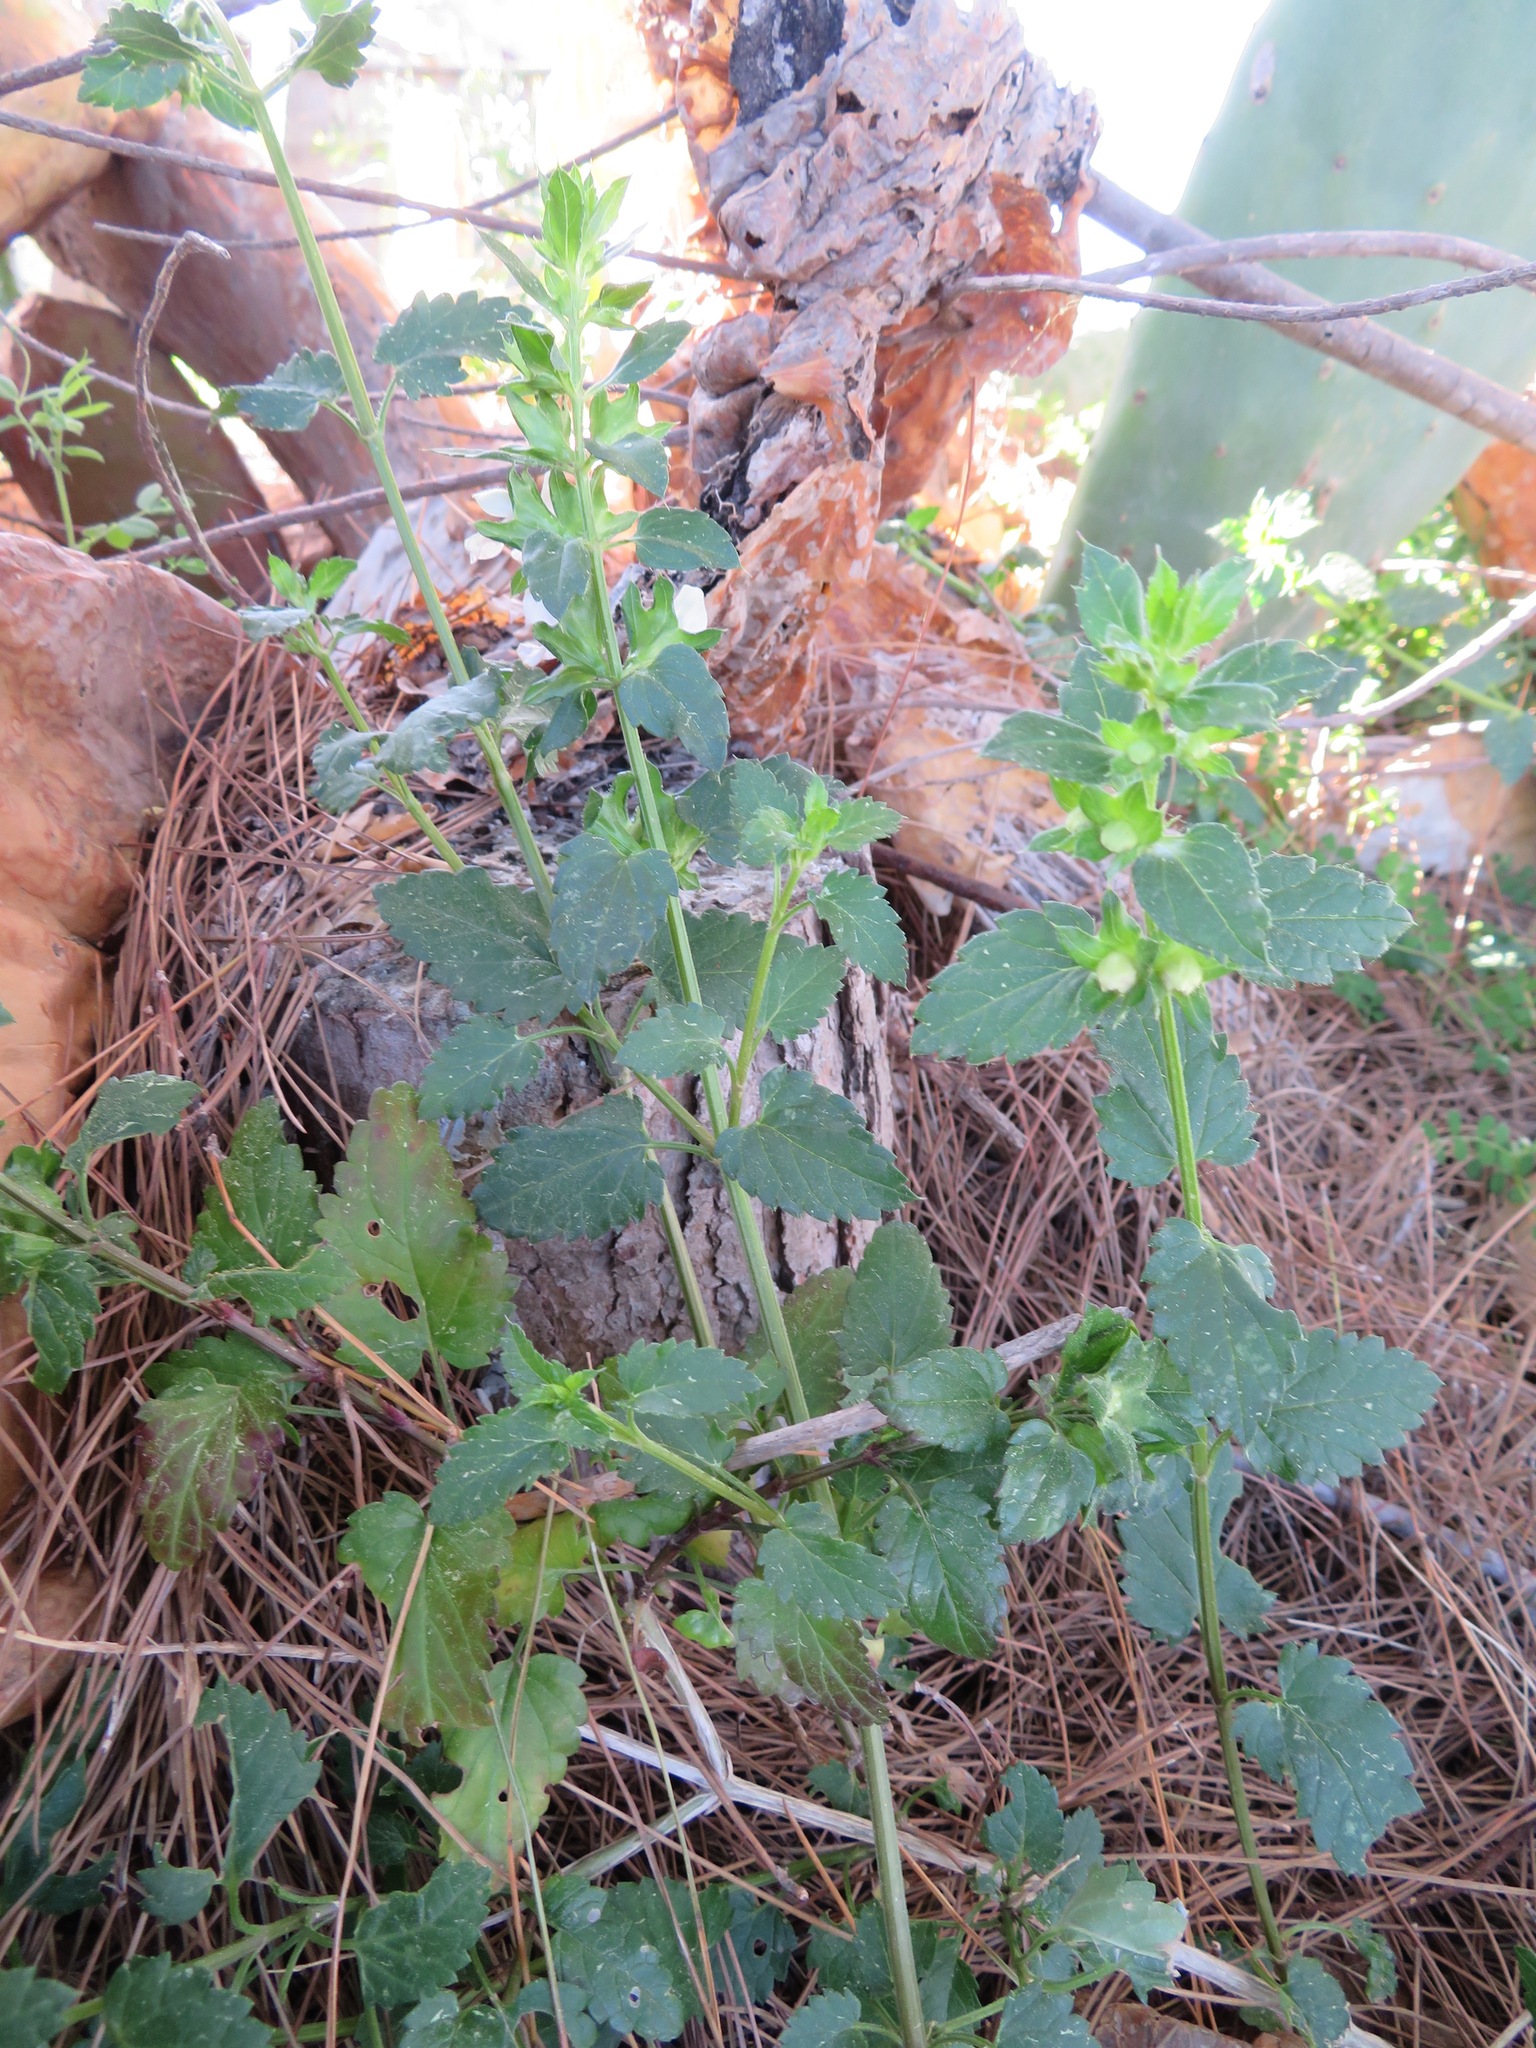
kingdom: Plantae
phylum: Tracheophyta
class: Magnoliopsida
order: Lamiales
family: Lamiaceae
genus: Prasium
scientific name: Prasium majus
